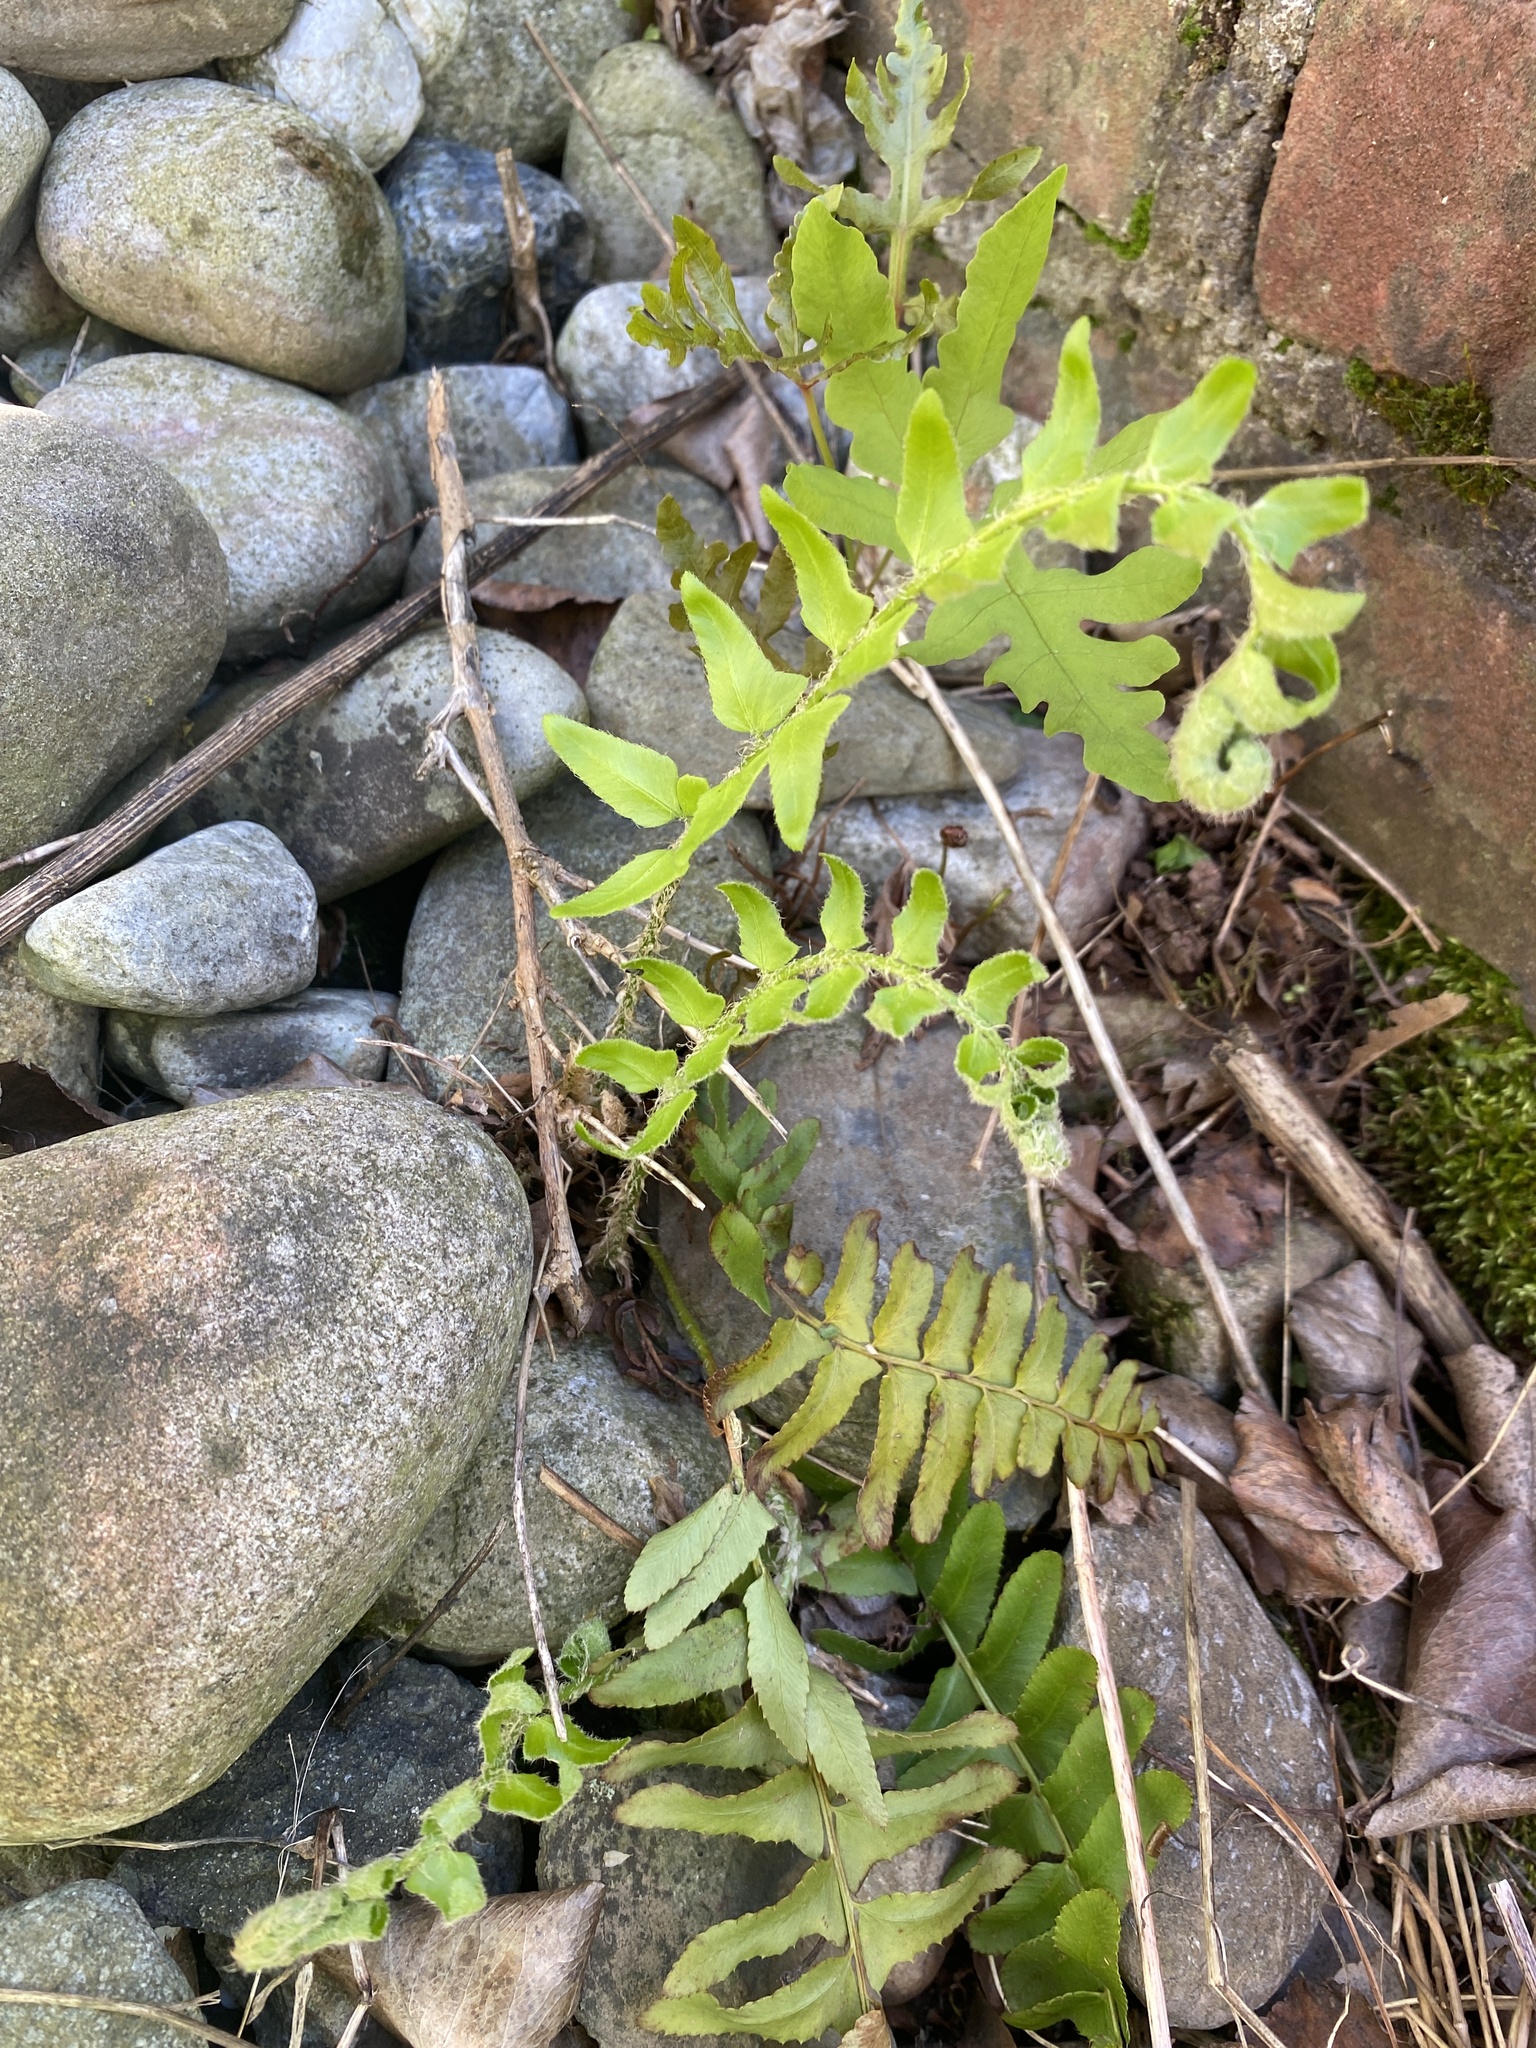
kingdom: Plantae
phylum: Tracheophyta
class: Polypodiopsida
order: Polypodiales
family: Dryopteridaceae
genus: Polystichum
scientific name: Polystichum acrostichoides
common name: Christmas fern
